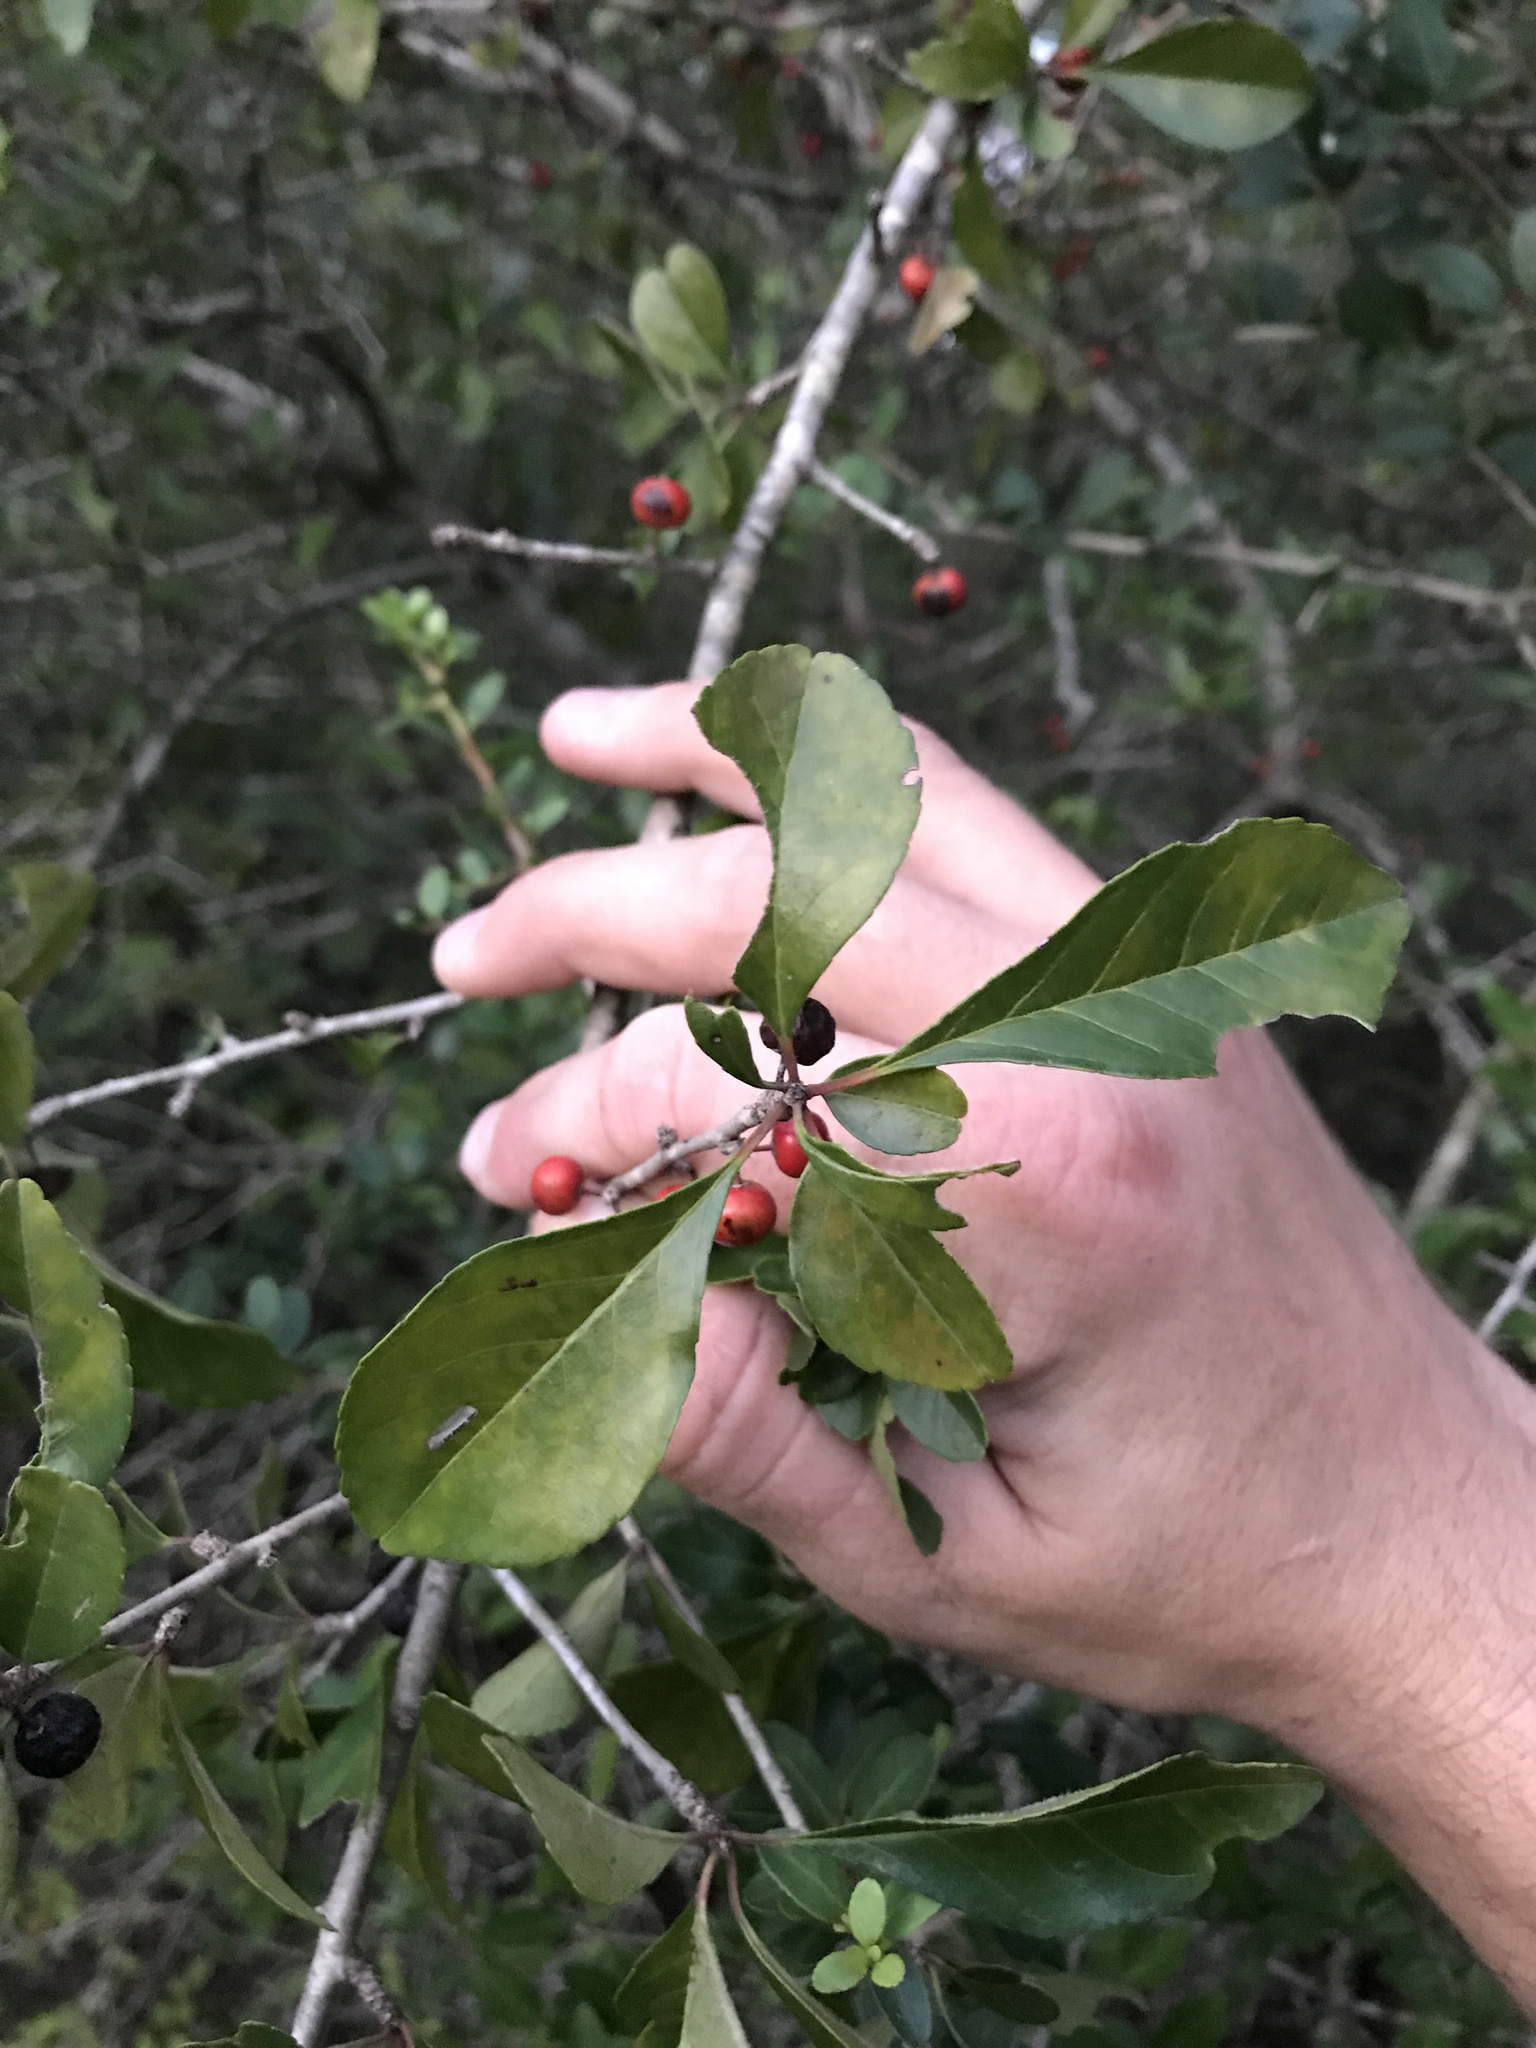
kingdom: Plantae
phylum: Tracheophyta
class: Magnoliopsida
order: Aquifoliales
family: Aquifoliaceae
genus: Ilex
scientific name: Ilex decidua
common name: Possum-haw
